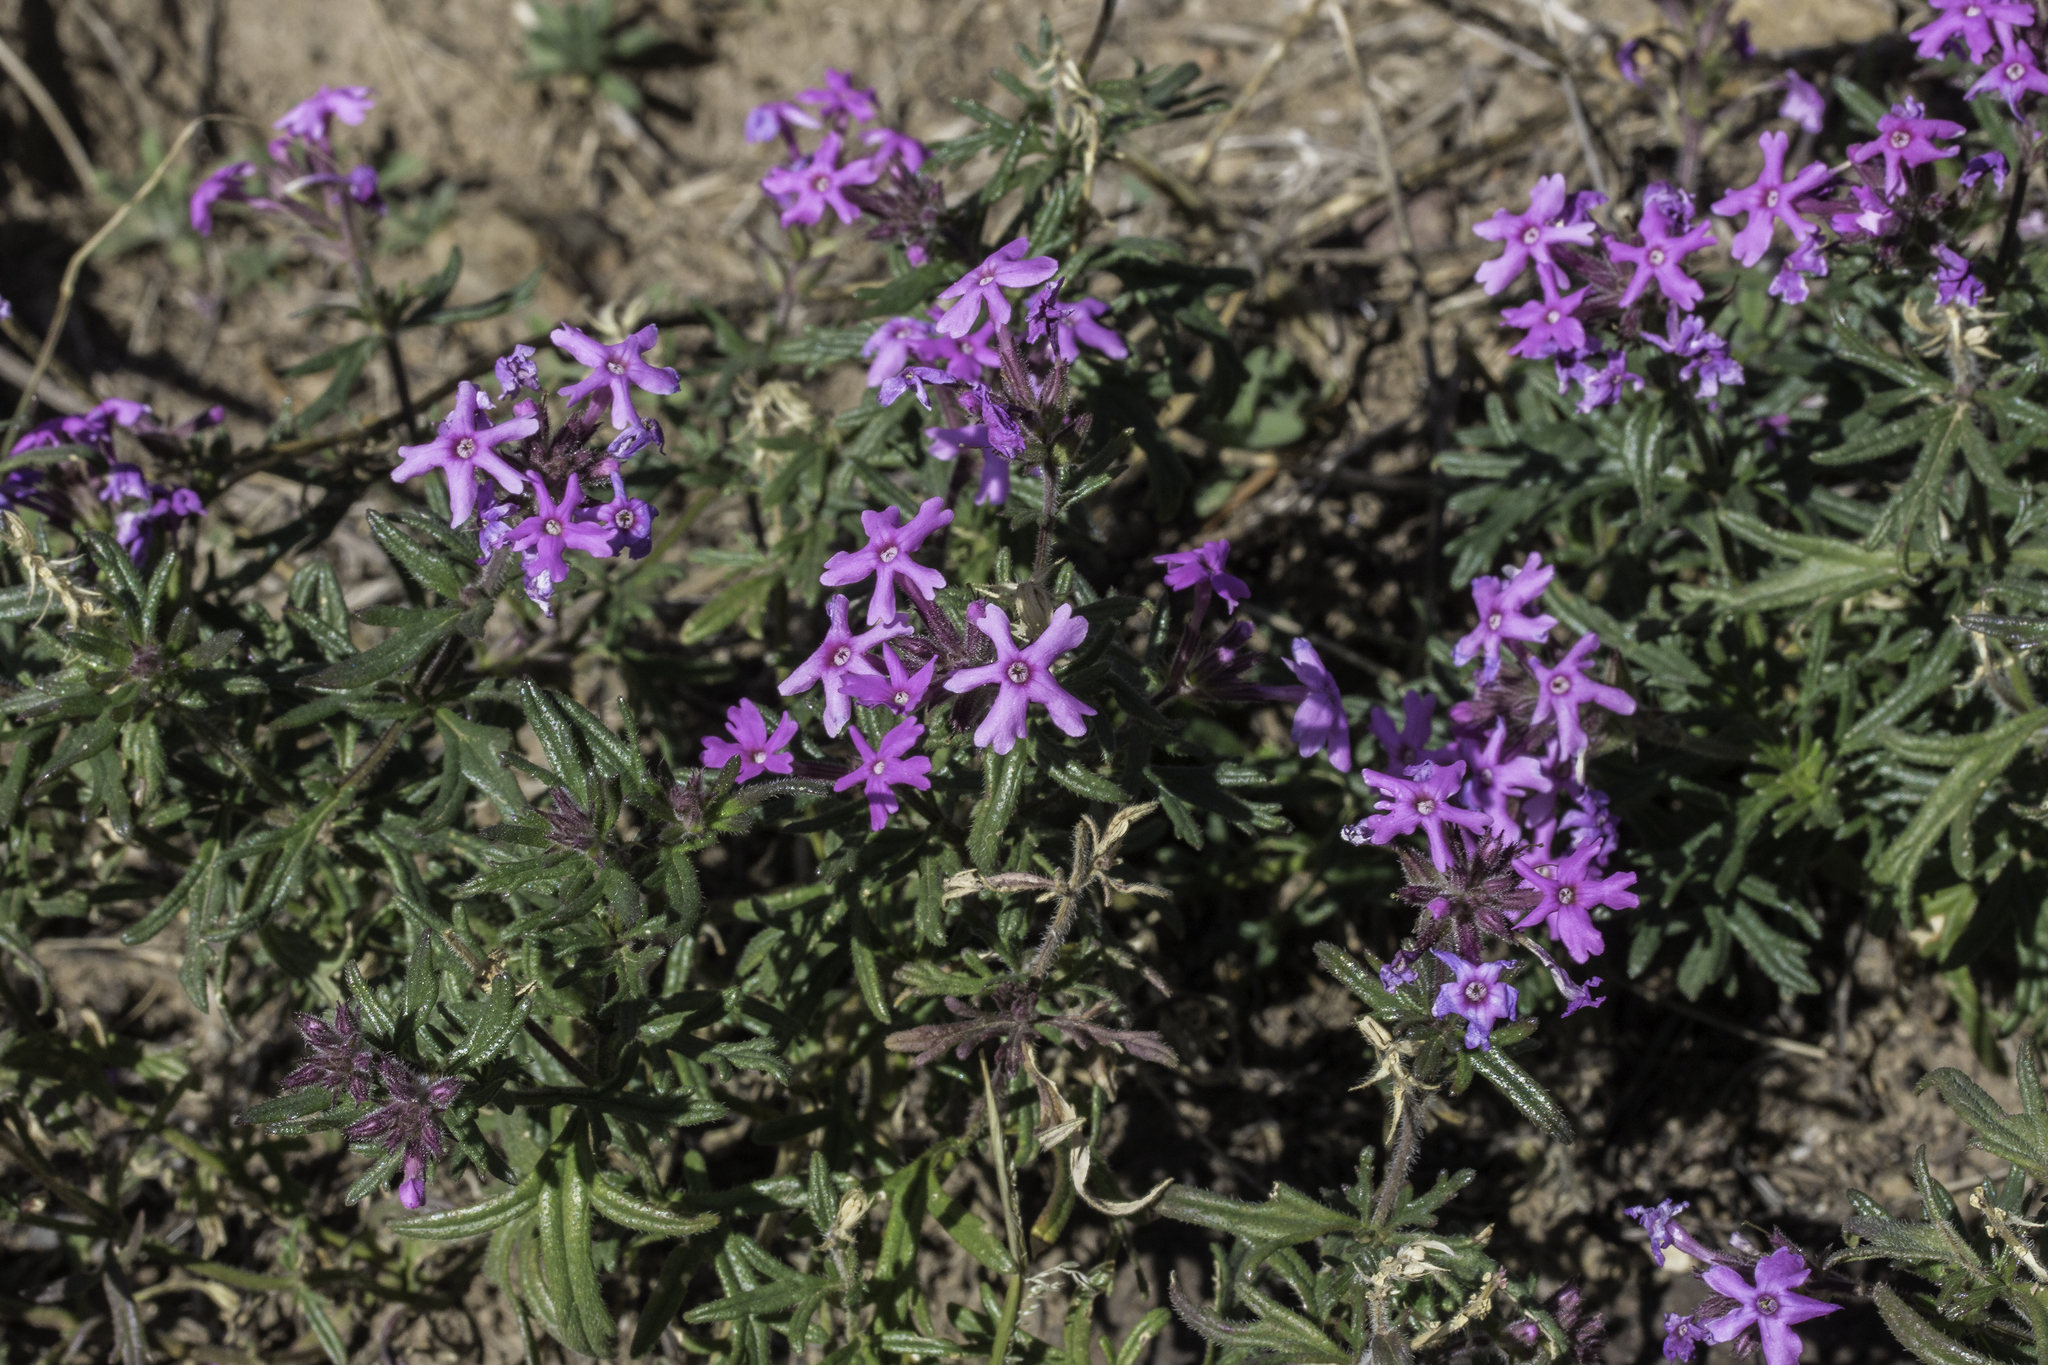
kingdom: Plantae
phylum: Tracheophyta
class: Magnoliopsida
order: Lamiales
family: Verbenaceae
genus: Verbena
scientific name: Verbena bipinnatifida
